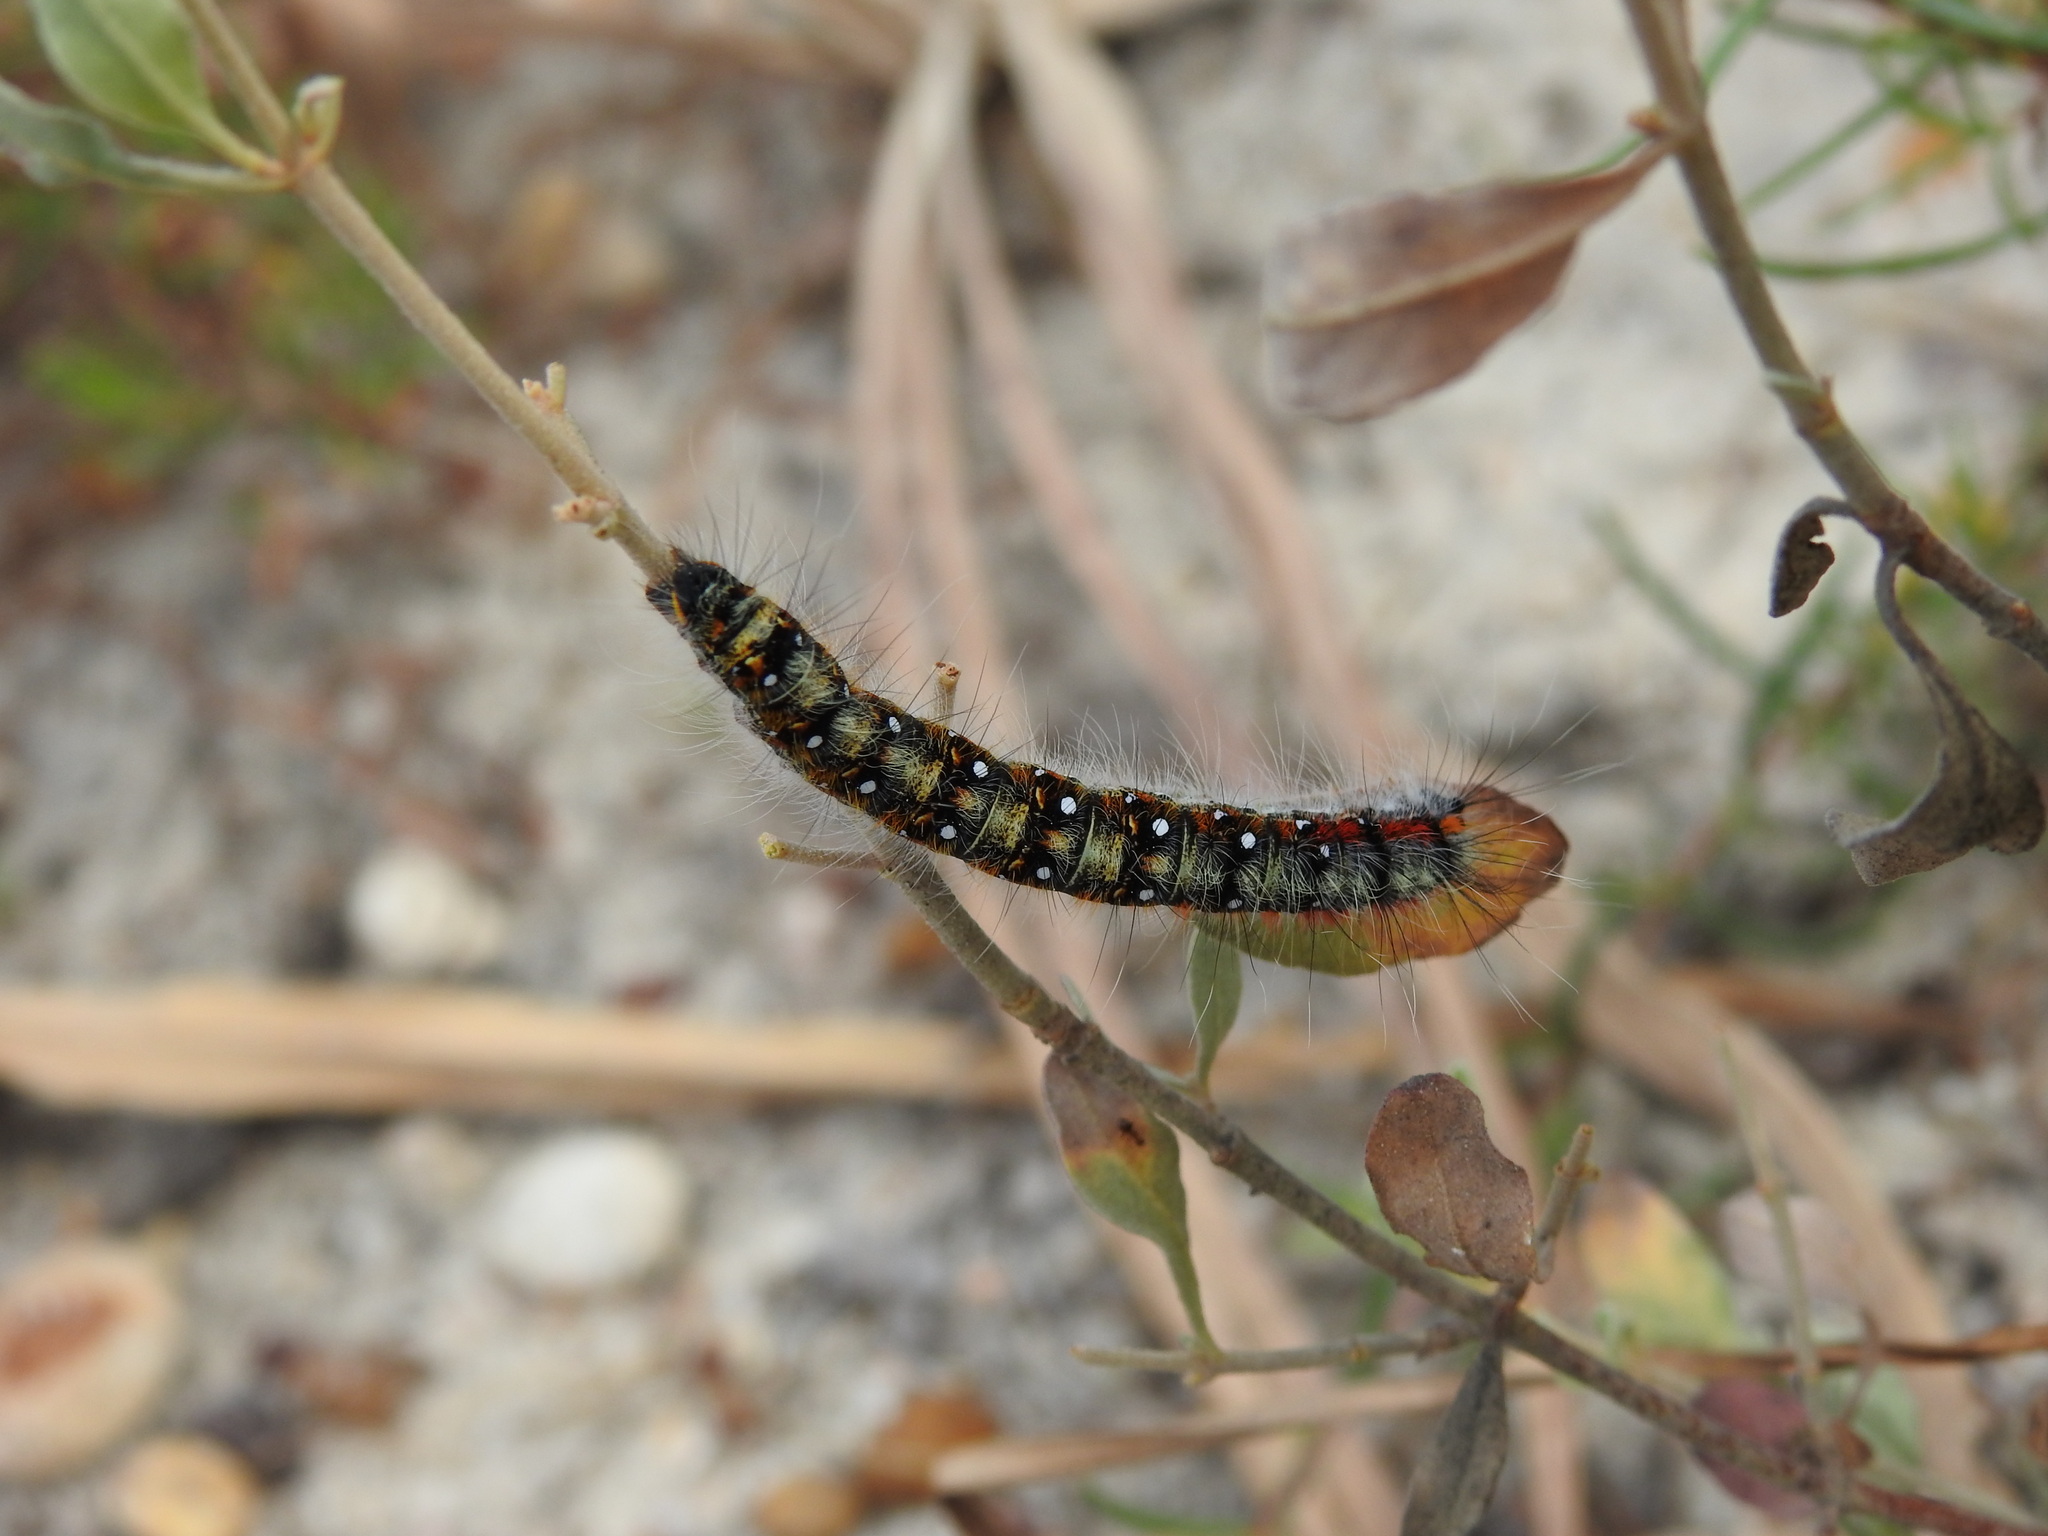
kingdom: Animalia
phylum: Arthropoda
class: Insecta
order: Lepidoptera
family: Lasiocampidae
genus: Psilogaster
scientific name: Psilogaster loti
